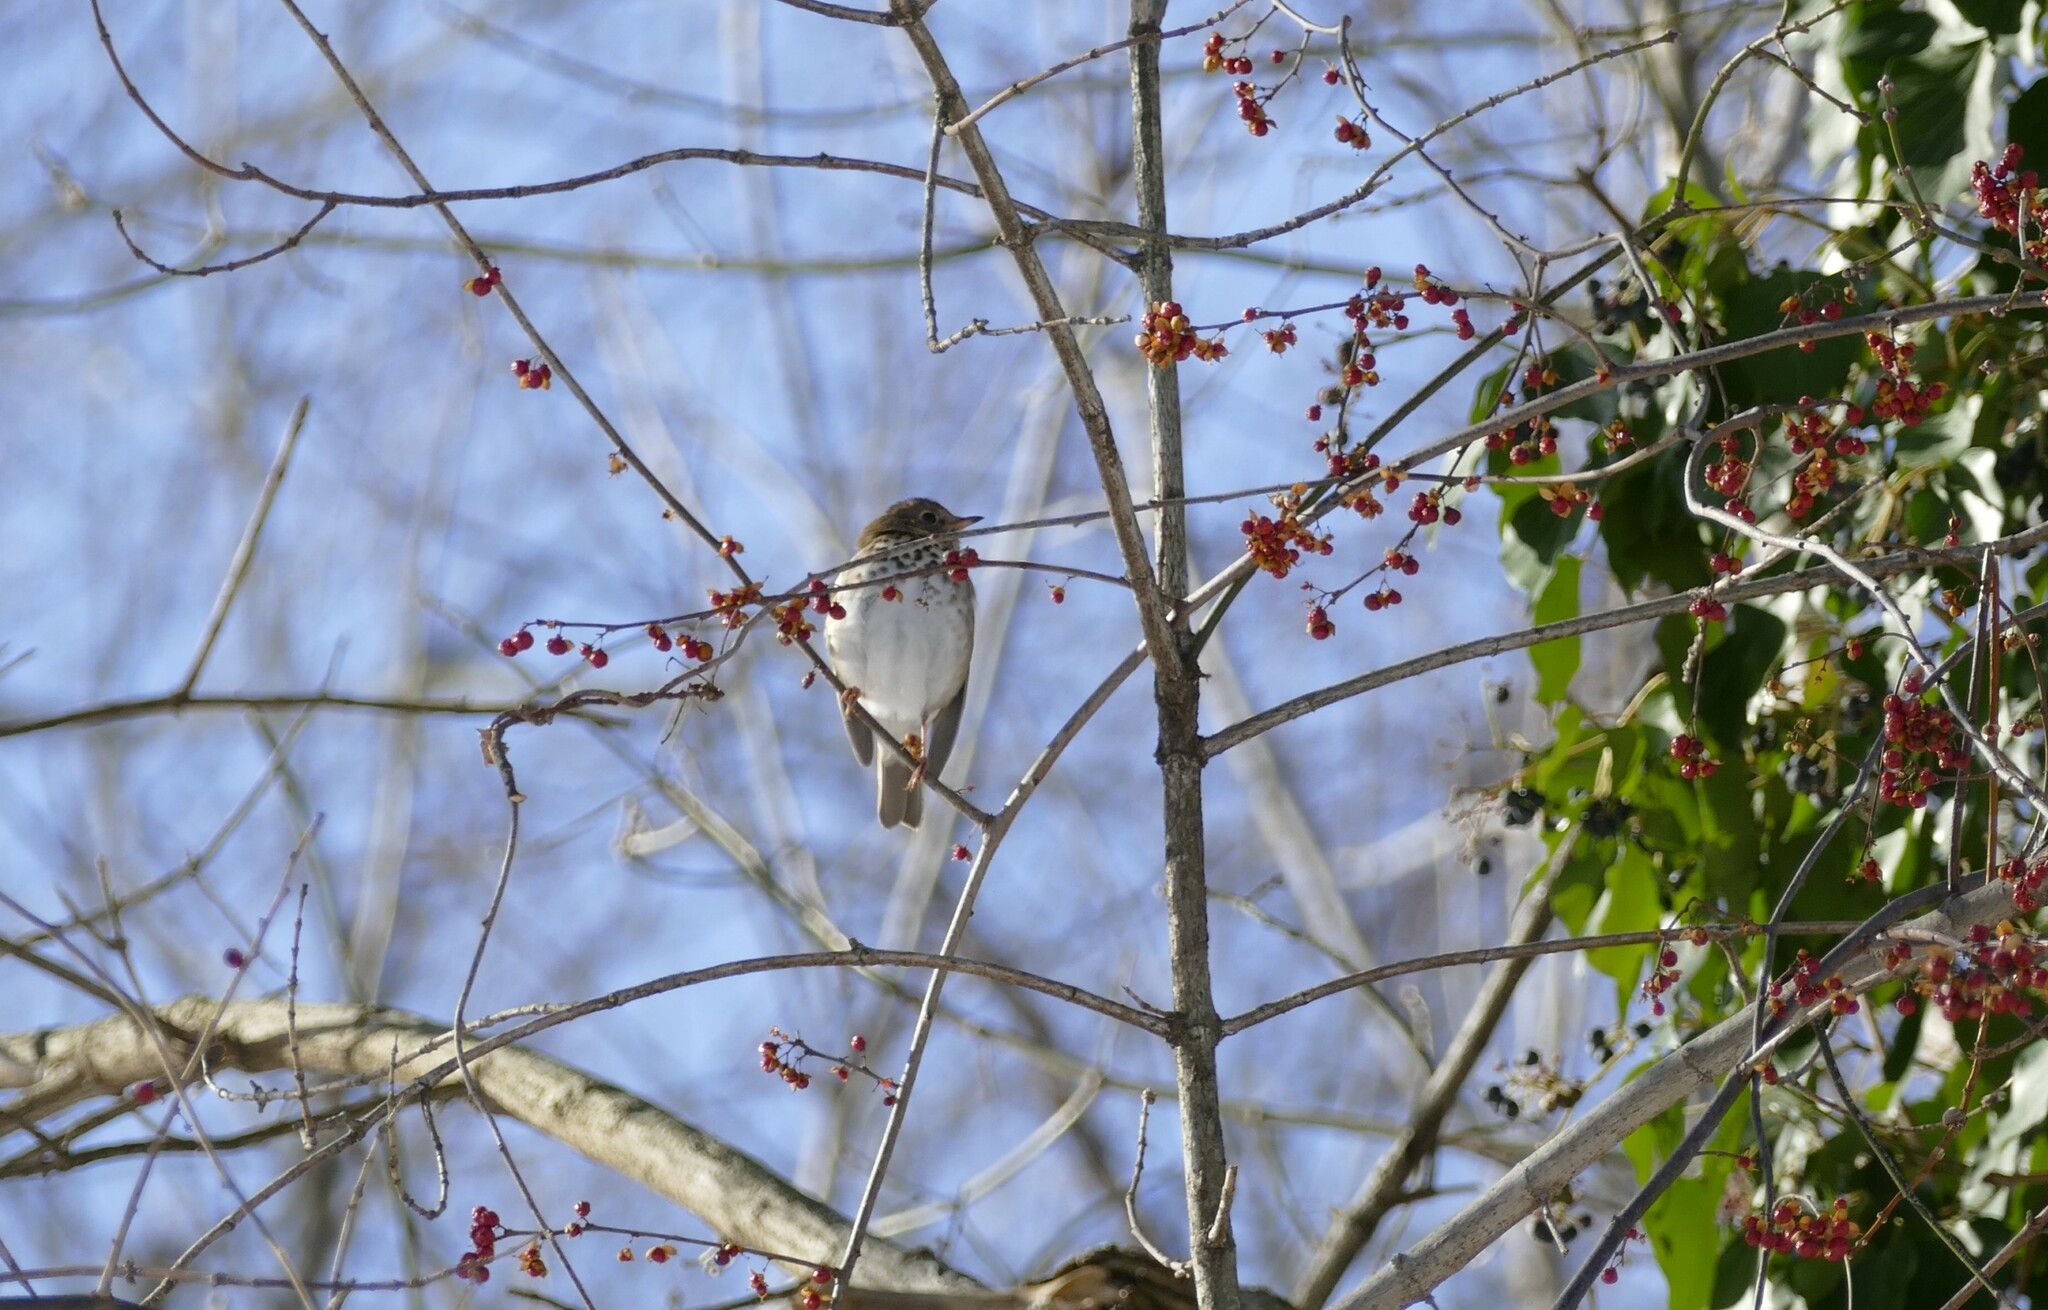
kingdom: Animalia
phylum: Chordata
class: Aves
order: Passeriformes
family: Turdidae
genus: Catharus
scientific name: Catharus guttatus
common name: Hermit thrush
